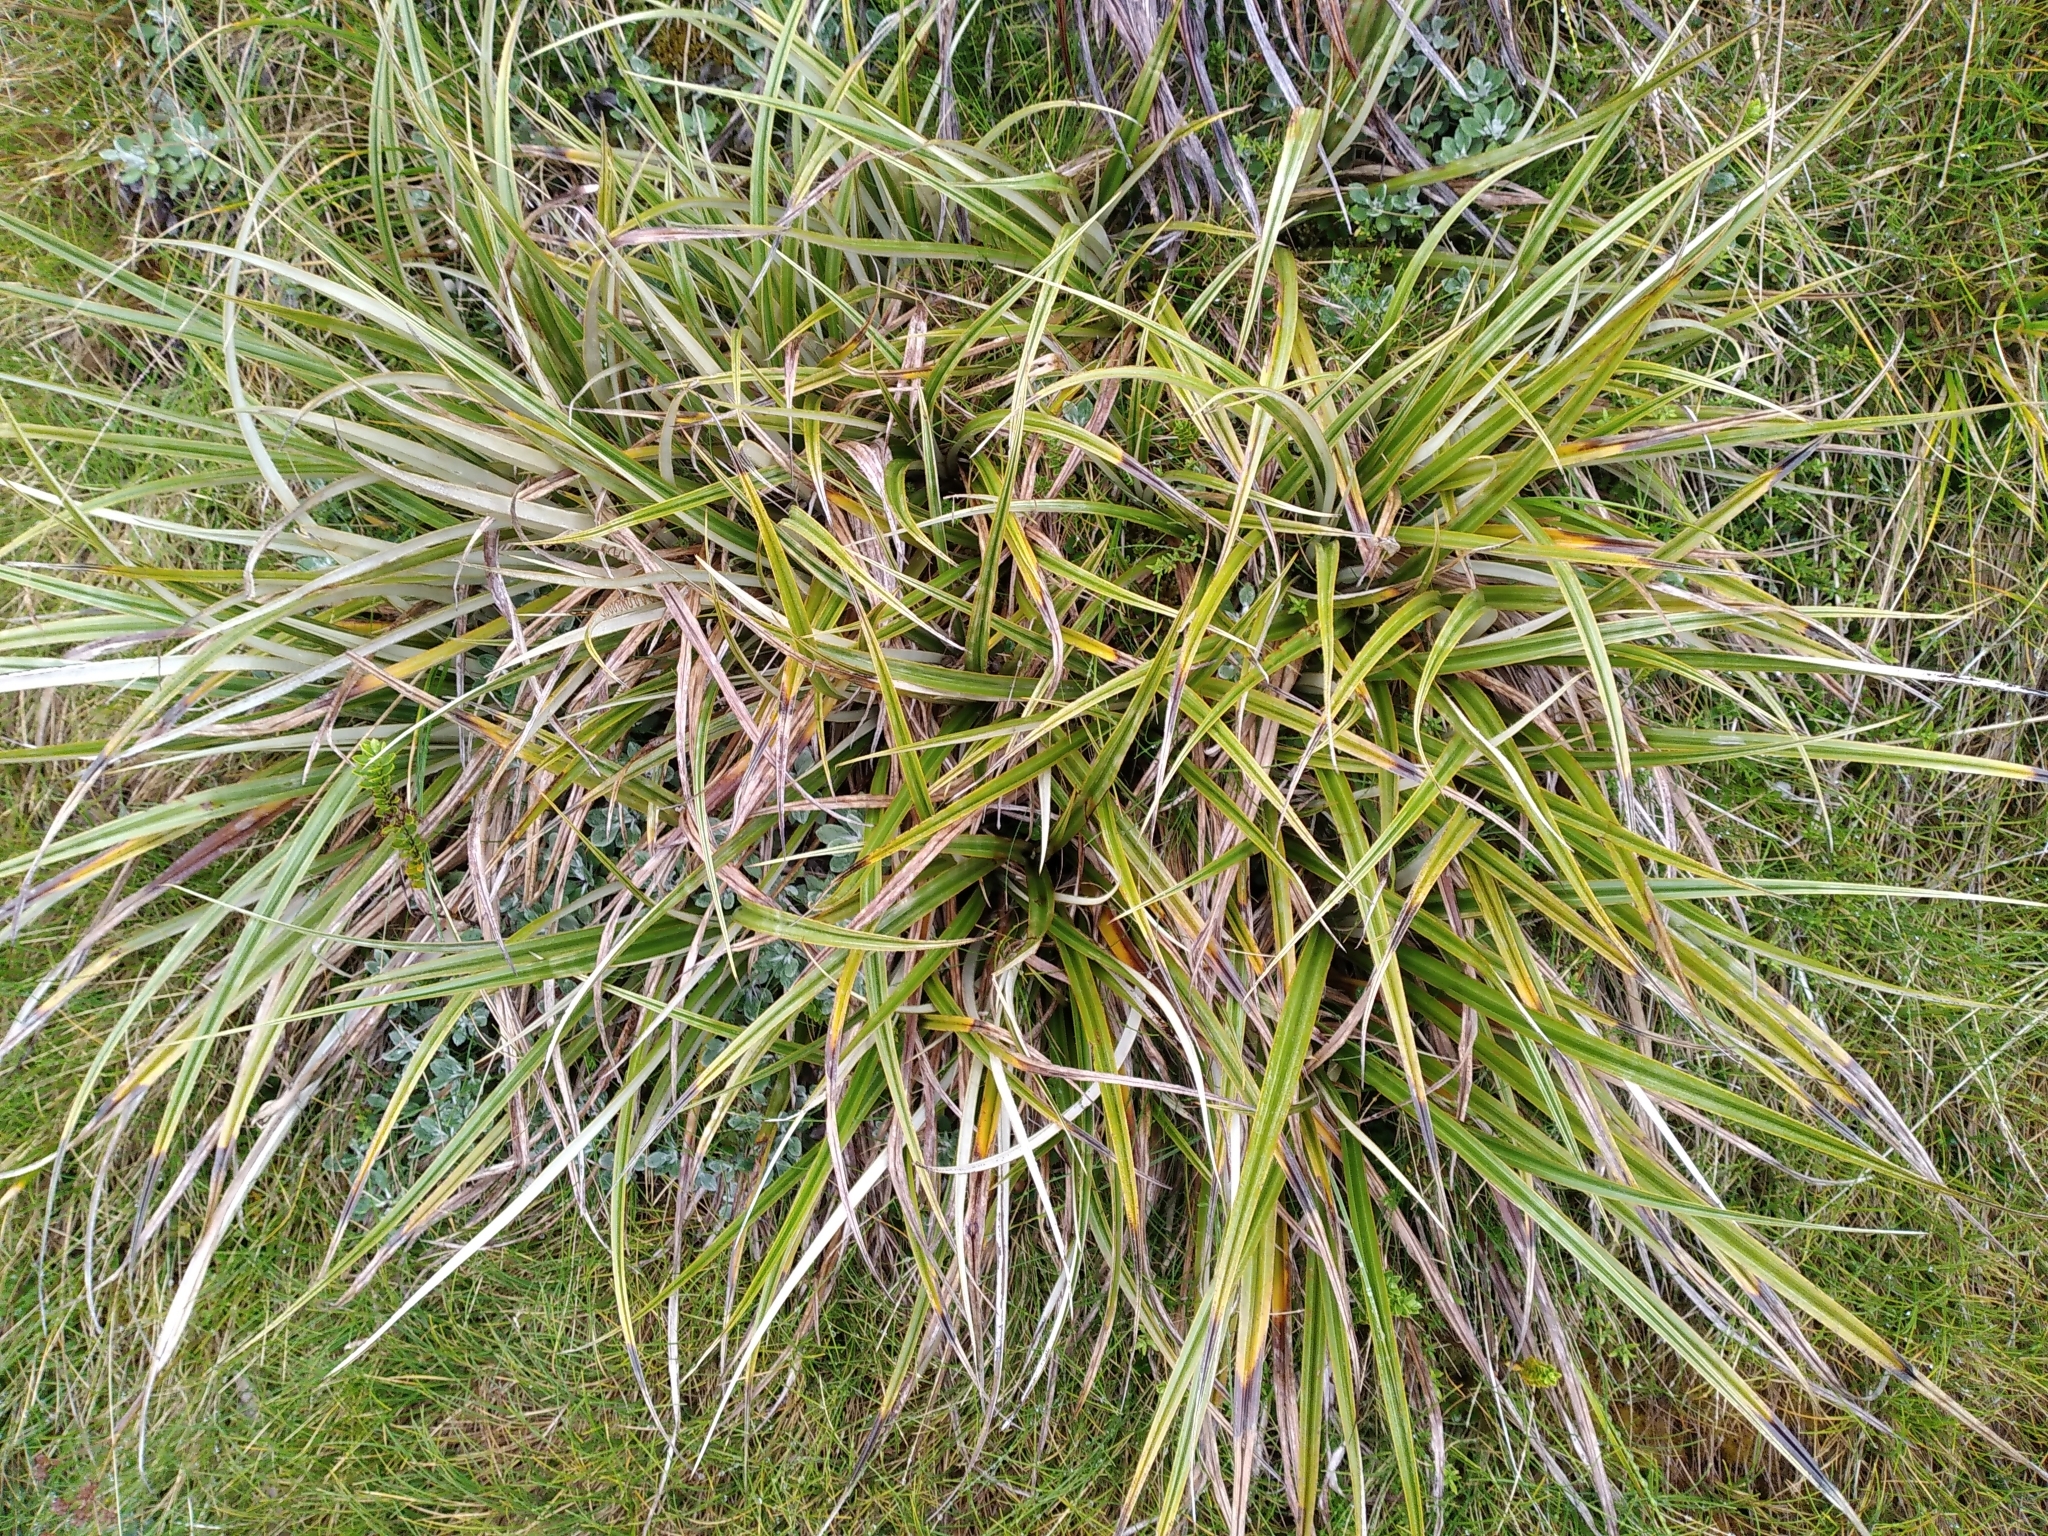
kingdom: Plantae
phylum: Tracheophyta
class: Liliopsida
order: Asparagales
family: Asteliaceae
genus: Astelia
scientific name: Astelia petriei
